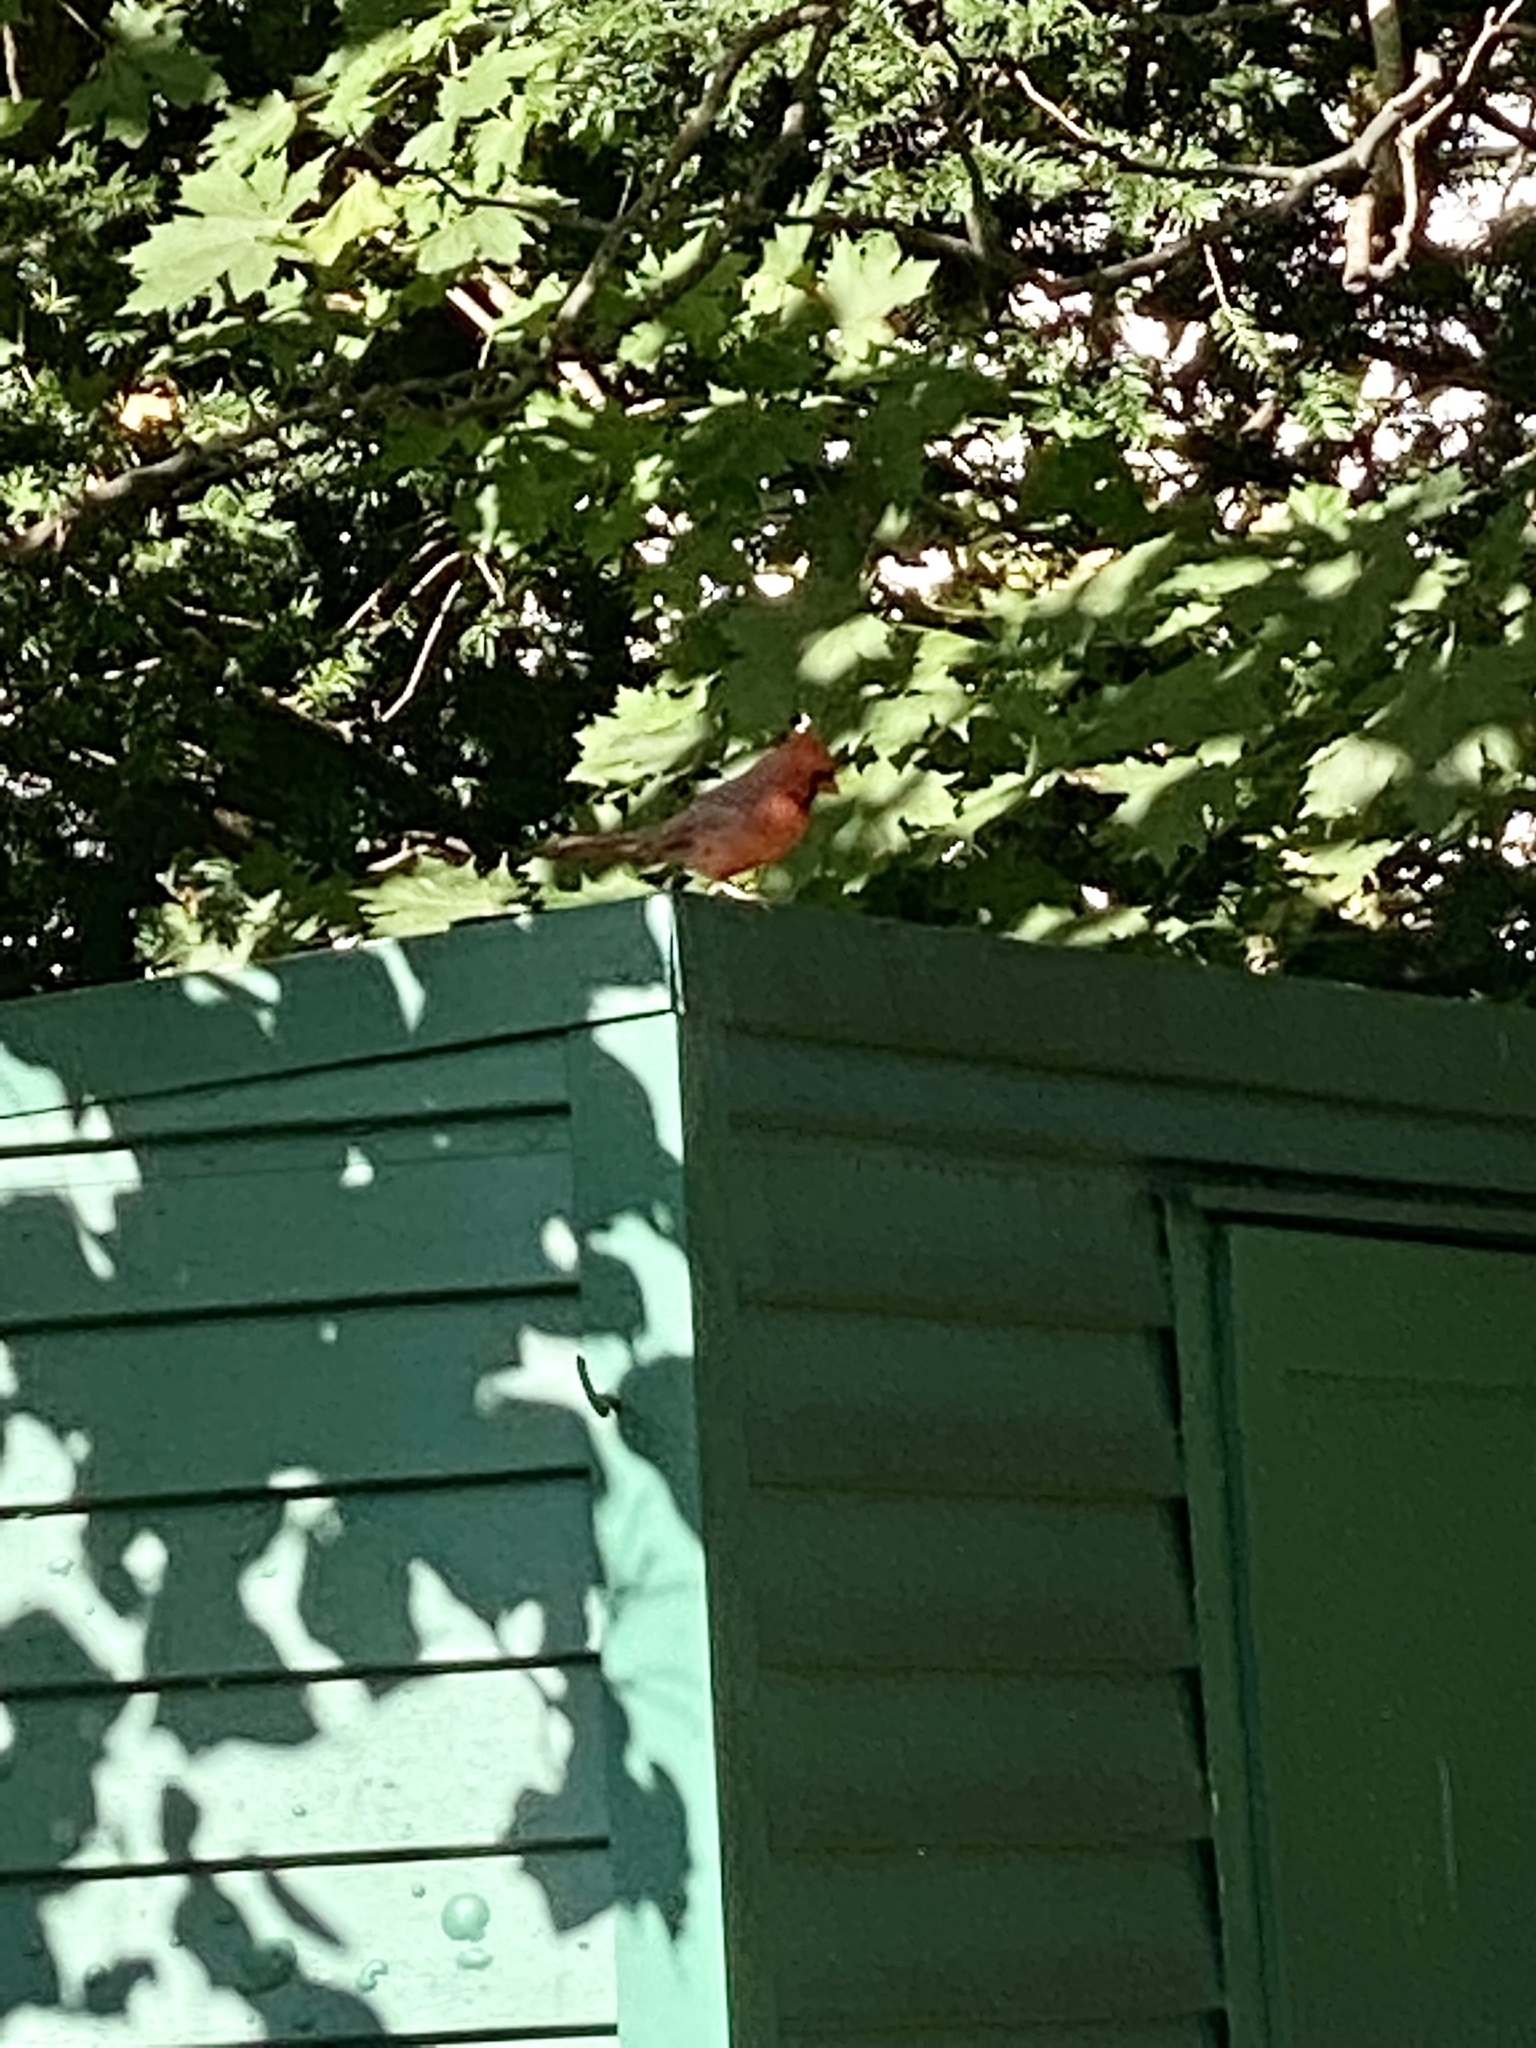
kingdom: Animalia
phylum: Chordata
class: Aves
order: Passeriformes
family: Cardinalidae
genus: Cardinalis
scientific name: Cardinalis cardinalis
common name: Northern cardinal
